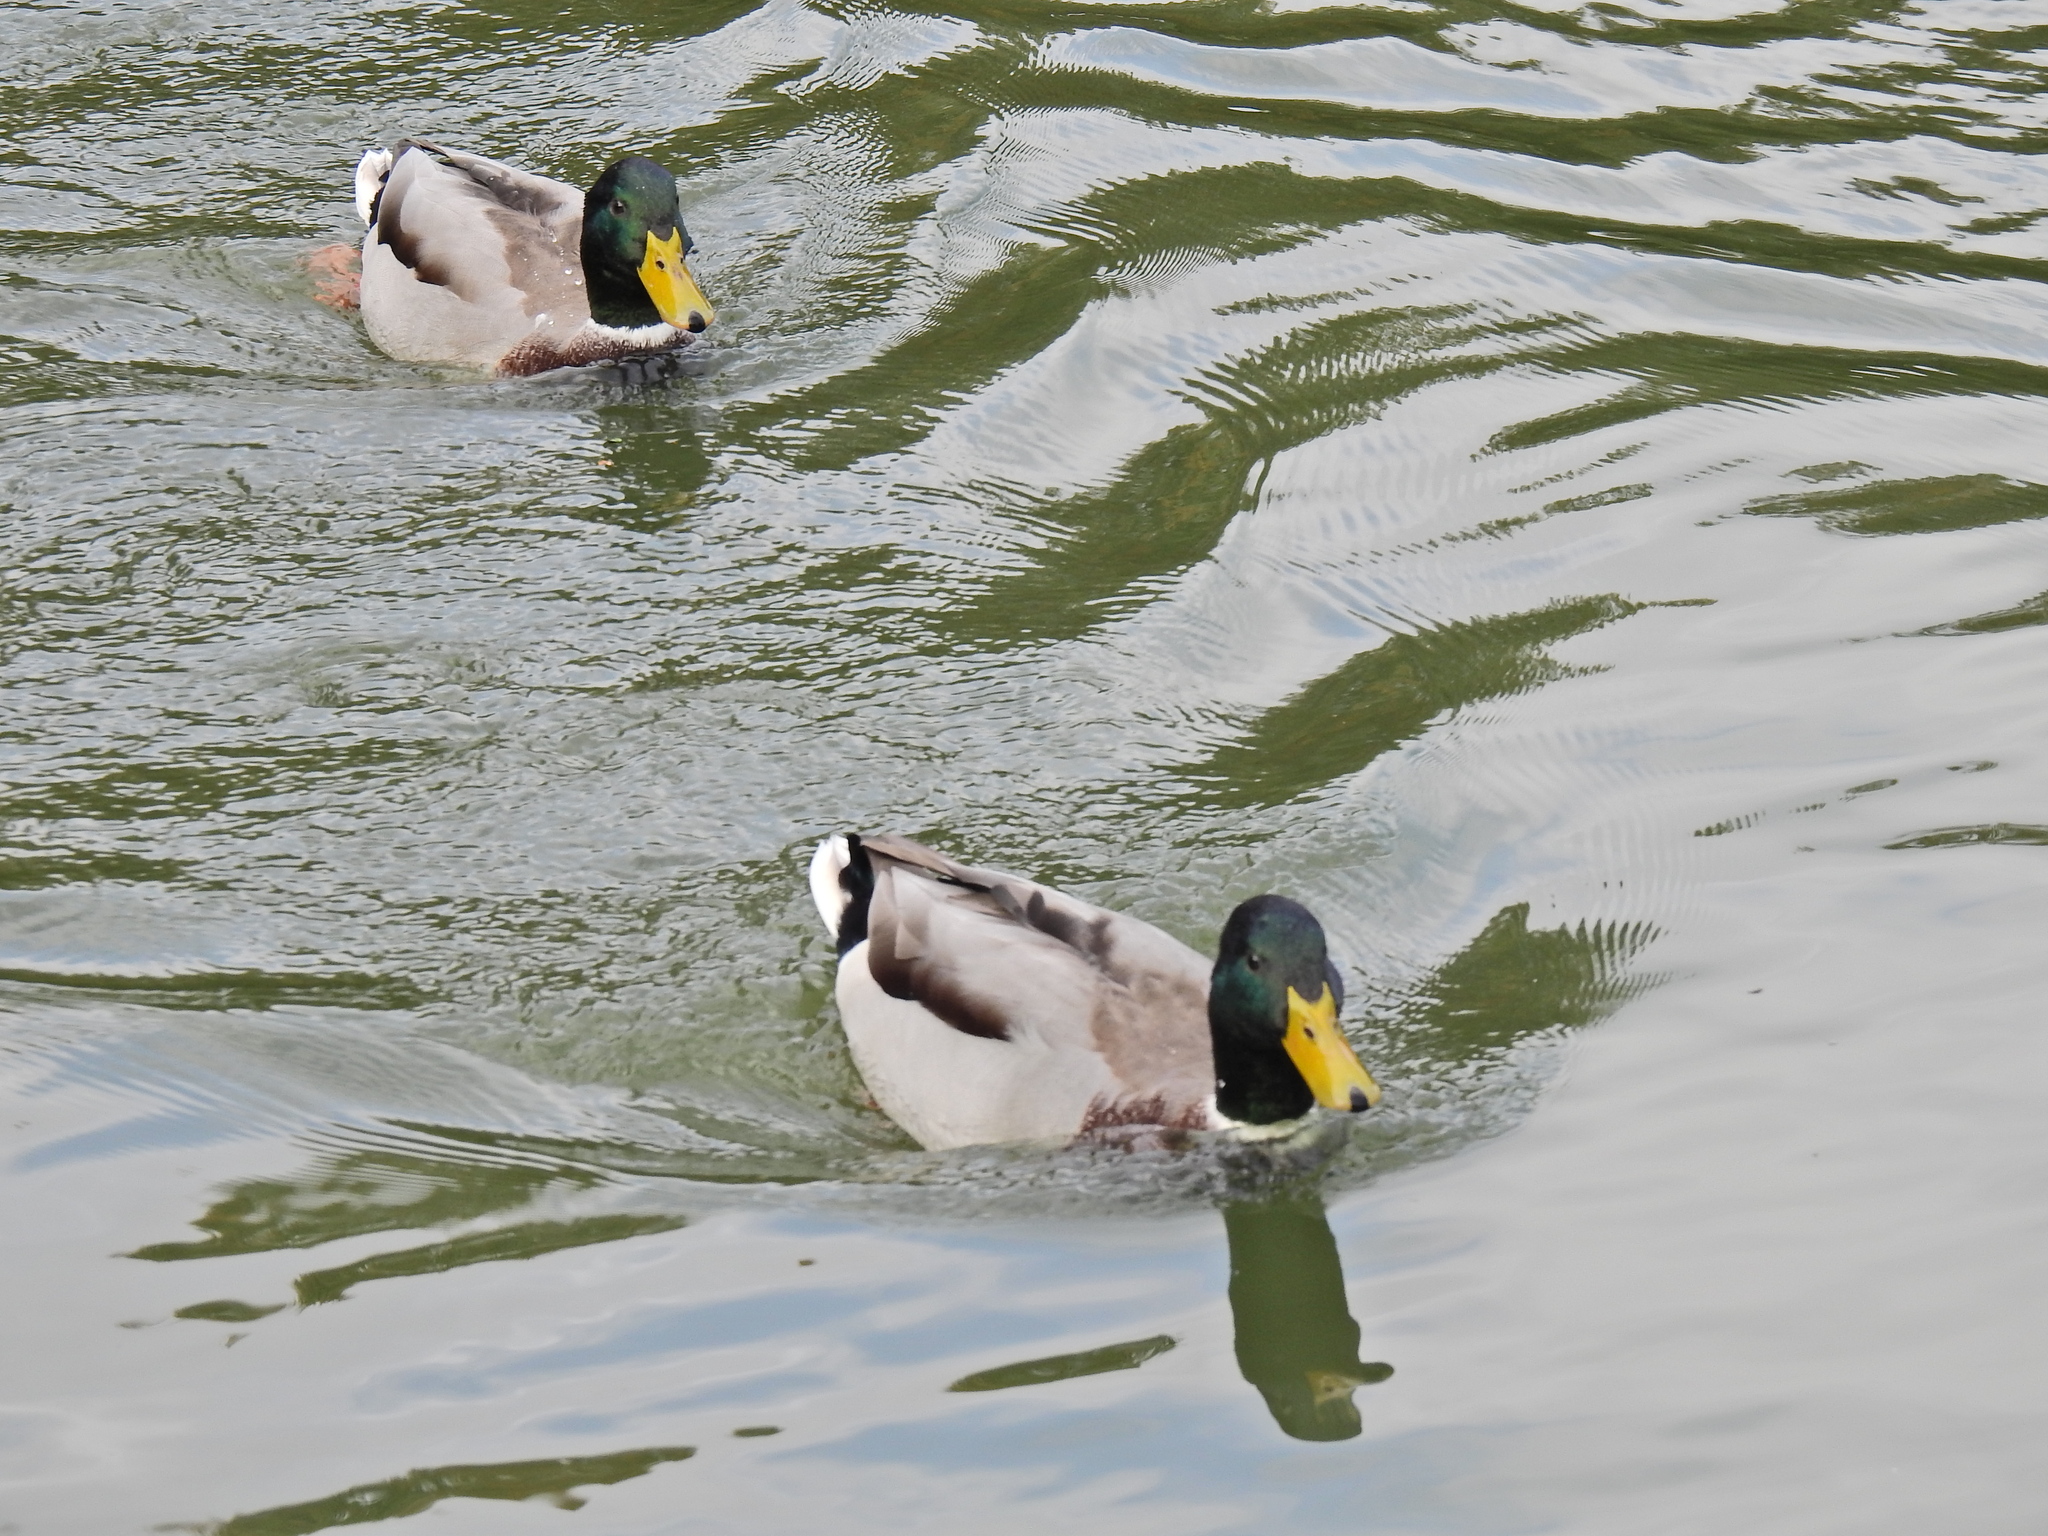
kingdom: Animalia
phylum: Chordata
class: Aves
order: Anseriformes
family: Anatidae
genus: Anas
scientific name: Anas platyrhynchos
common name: Mallard
